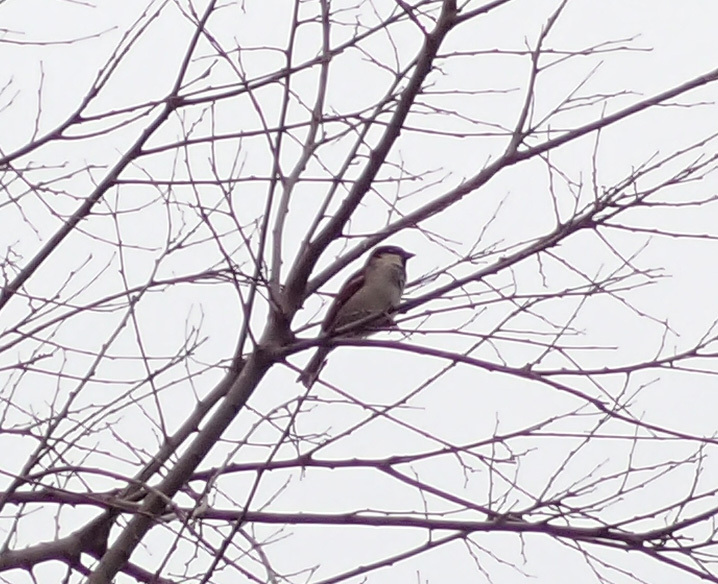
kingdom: Animalia
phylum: Chordata
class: Aves
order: Passeriformes
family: Passeridae
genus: Passer
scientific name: Passer italiae
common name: Italian sparrow
